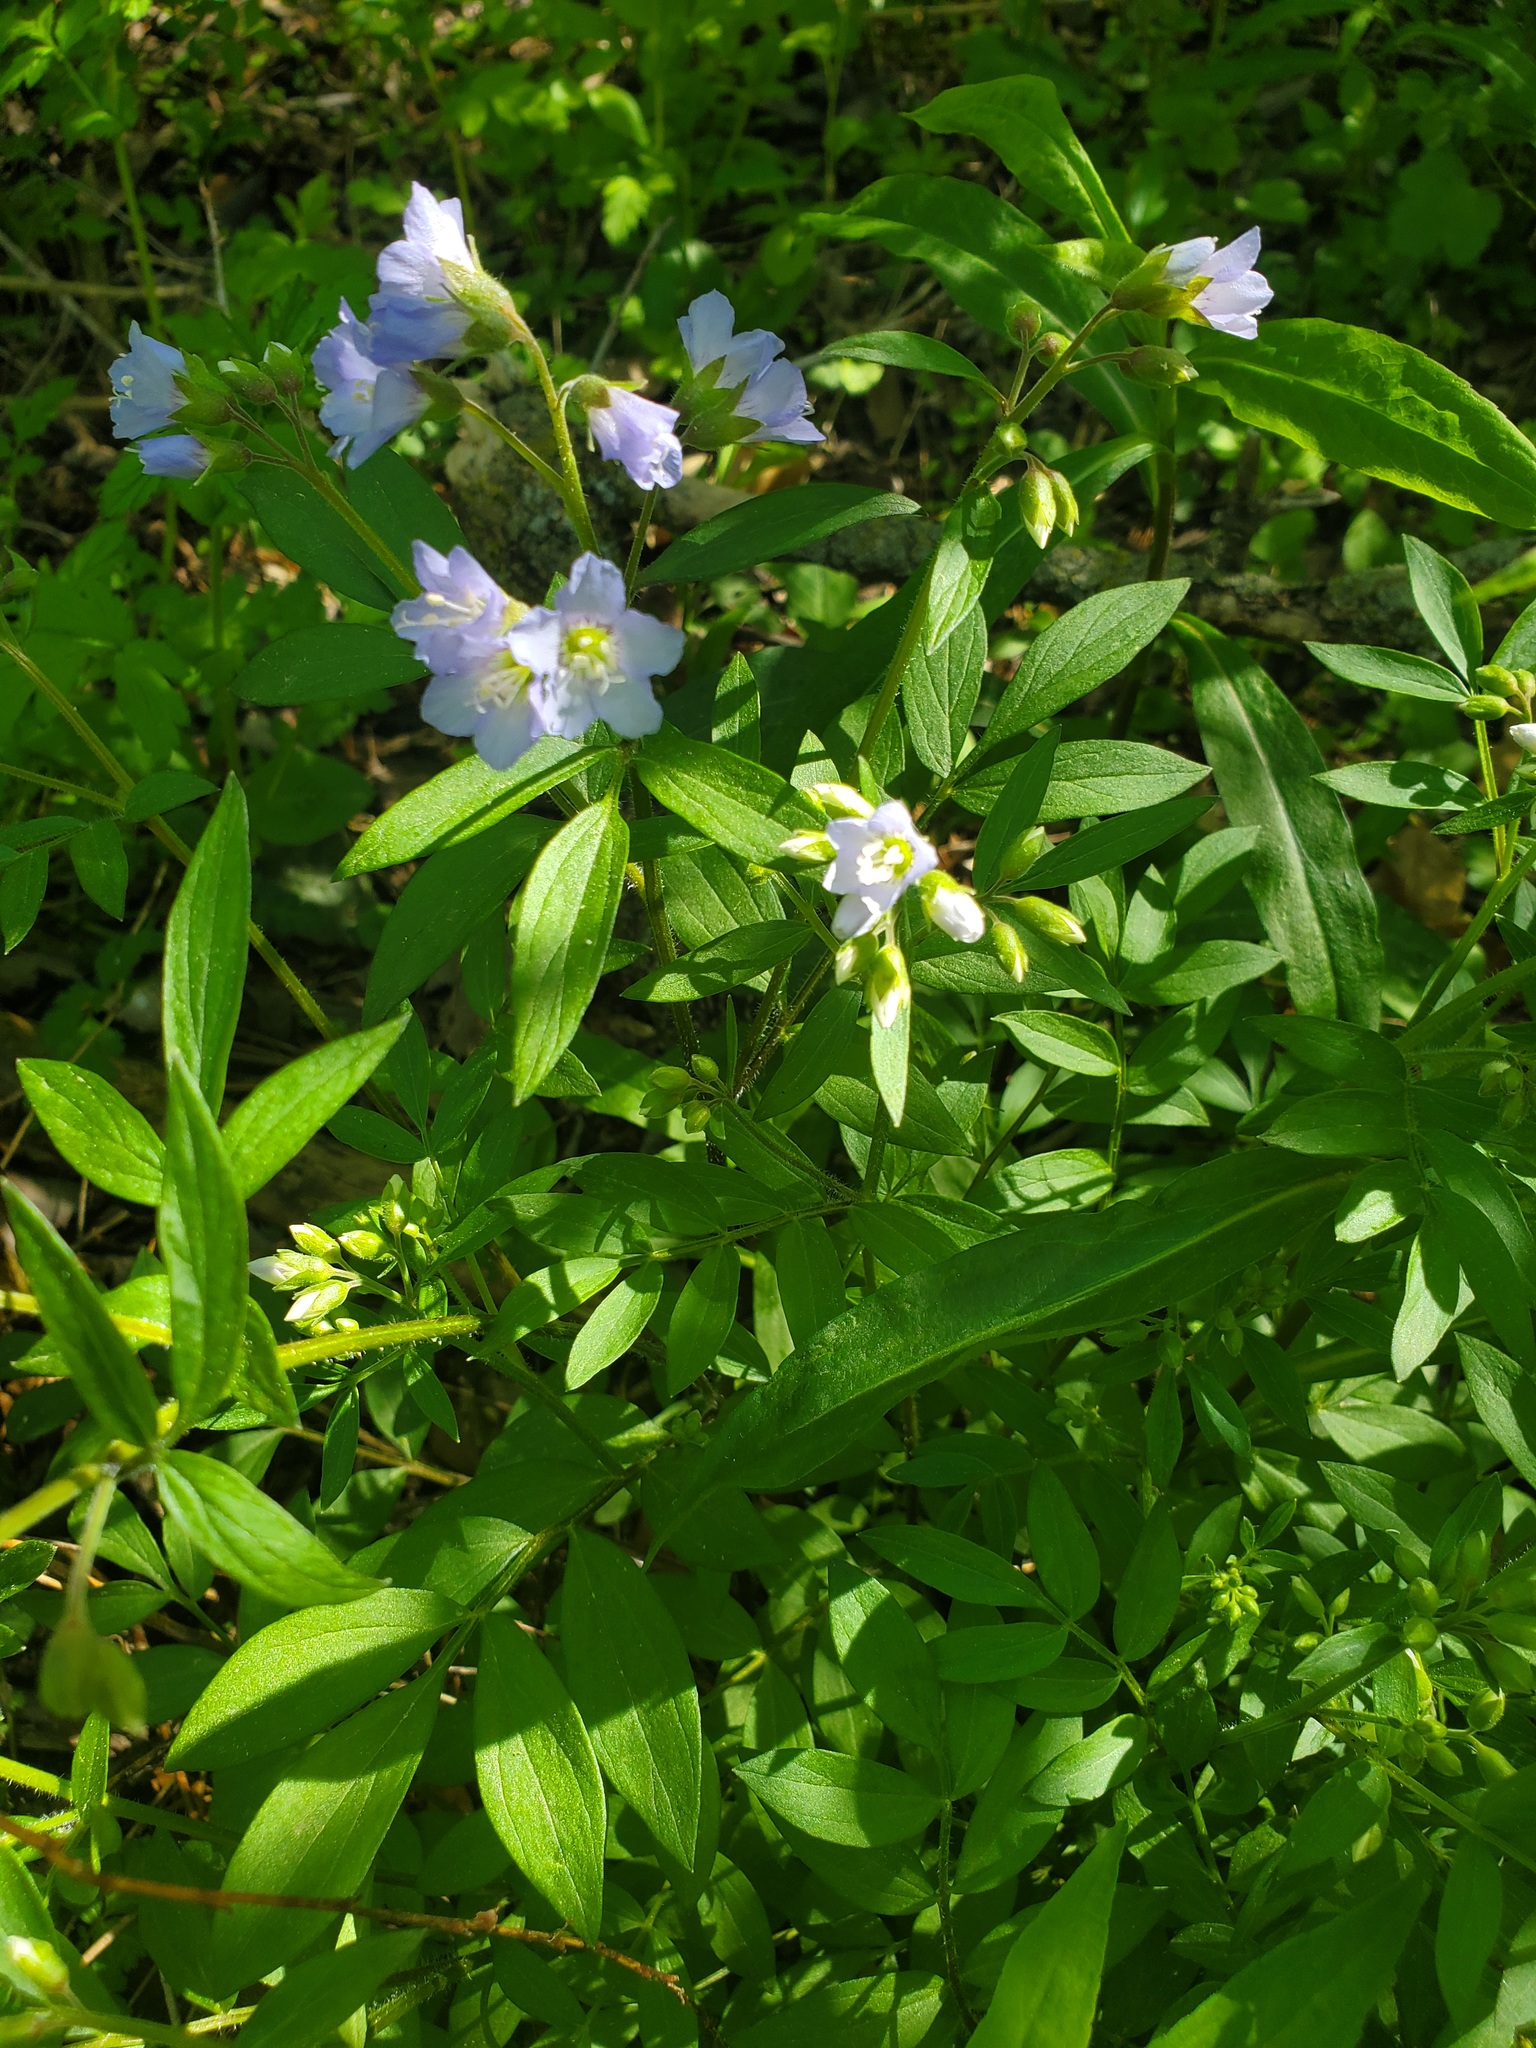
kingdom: Plantae
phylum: Tracheophyta
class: Magnoliopsida
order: Ericales
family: Polemoniaceae
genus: Polemonium
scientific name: Polemonium reptans
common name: Creeping jacob's-ladder
